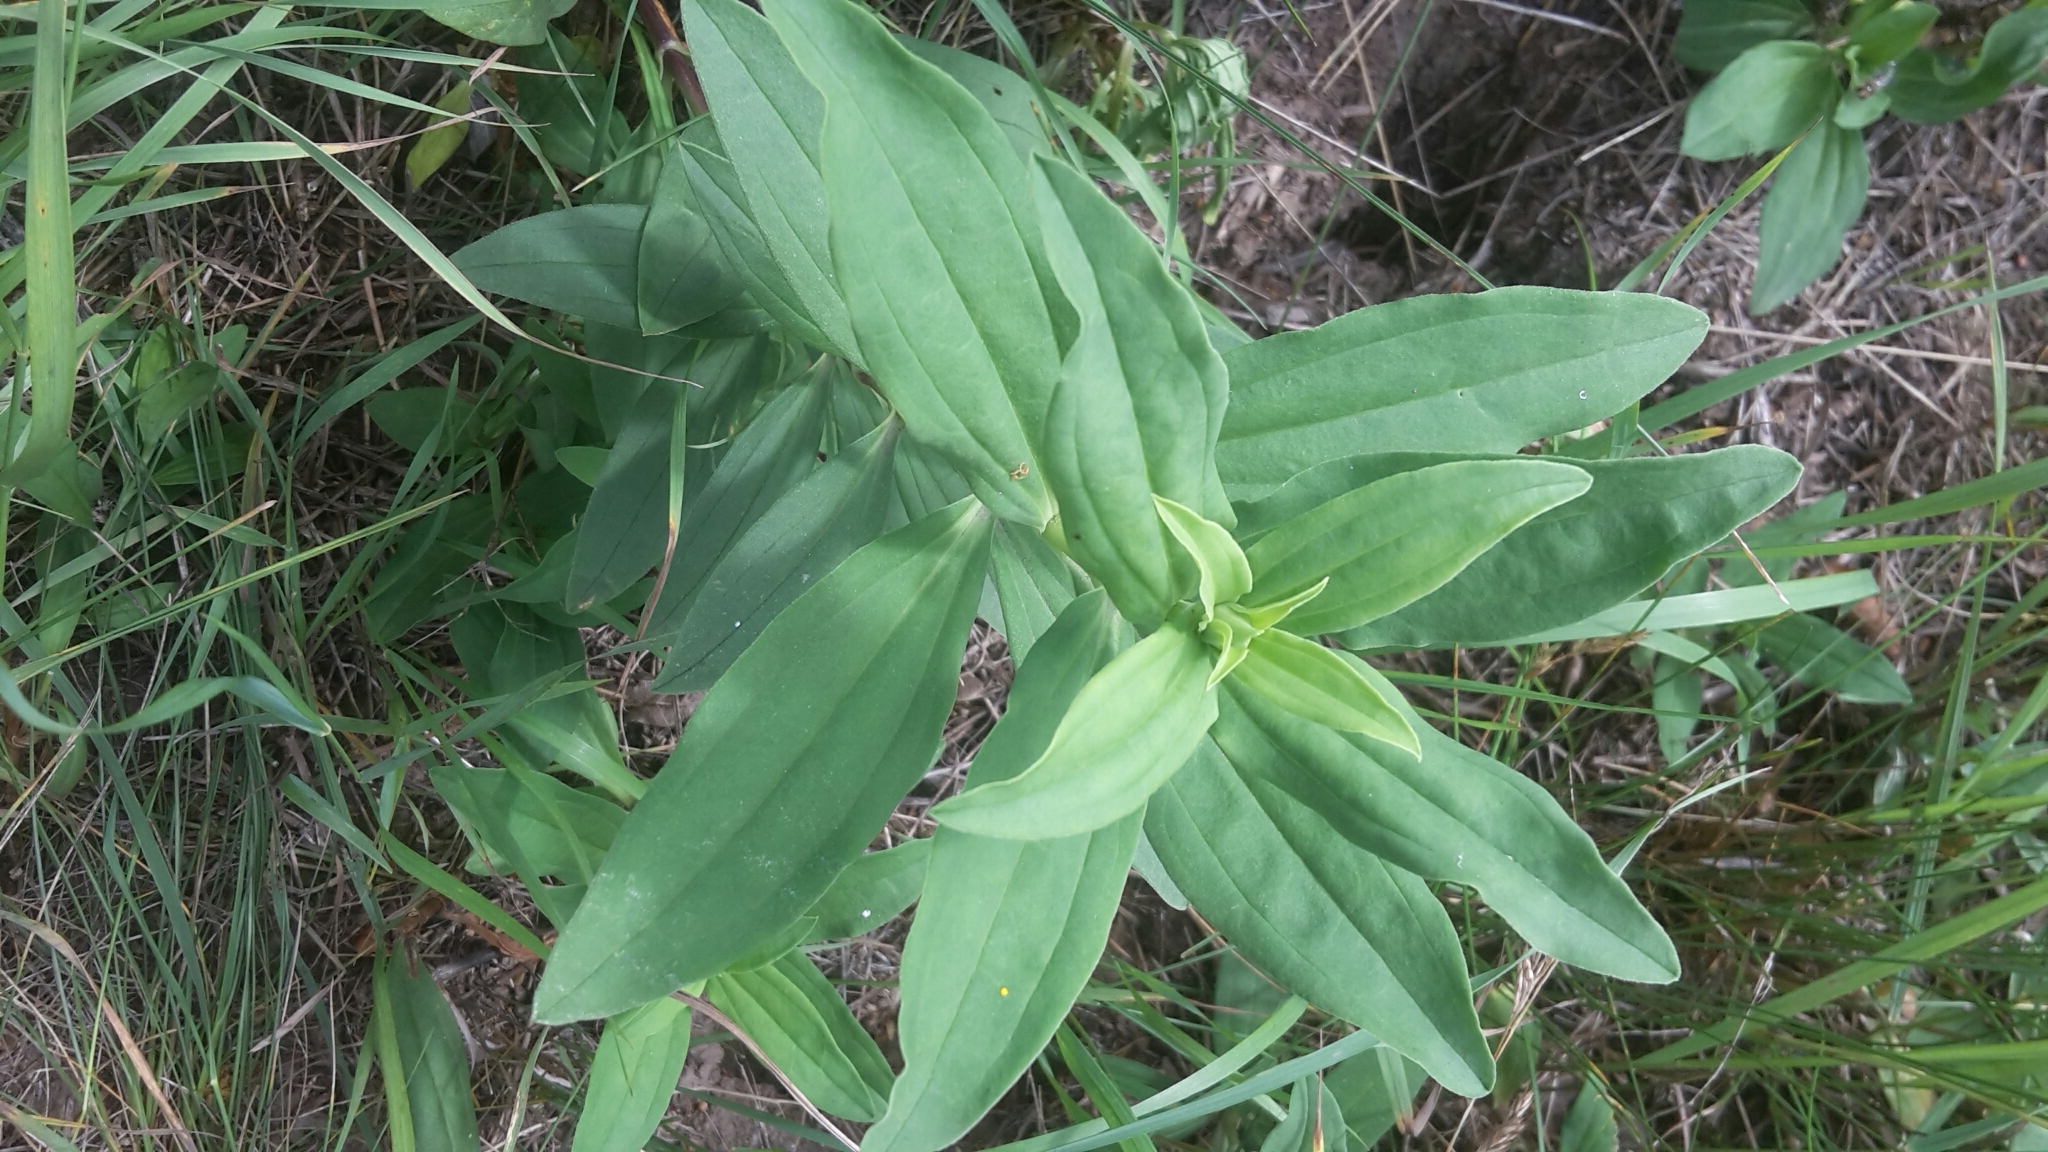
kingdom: Plantae
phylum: Tracheophyta
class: Magnoliopsida
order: Caryophyllales
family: Caryophyllaceae
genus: Saponaria
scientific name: Saponaria officinalis
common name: Soapwort
